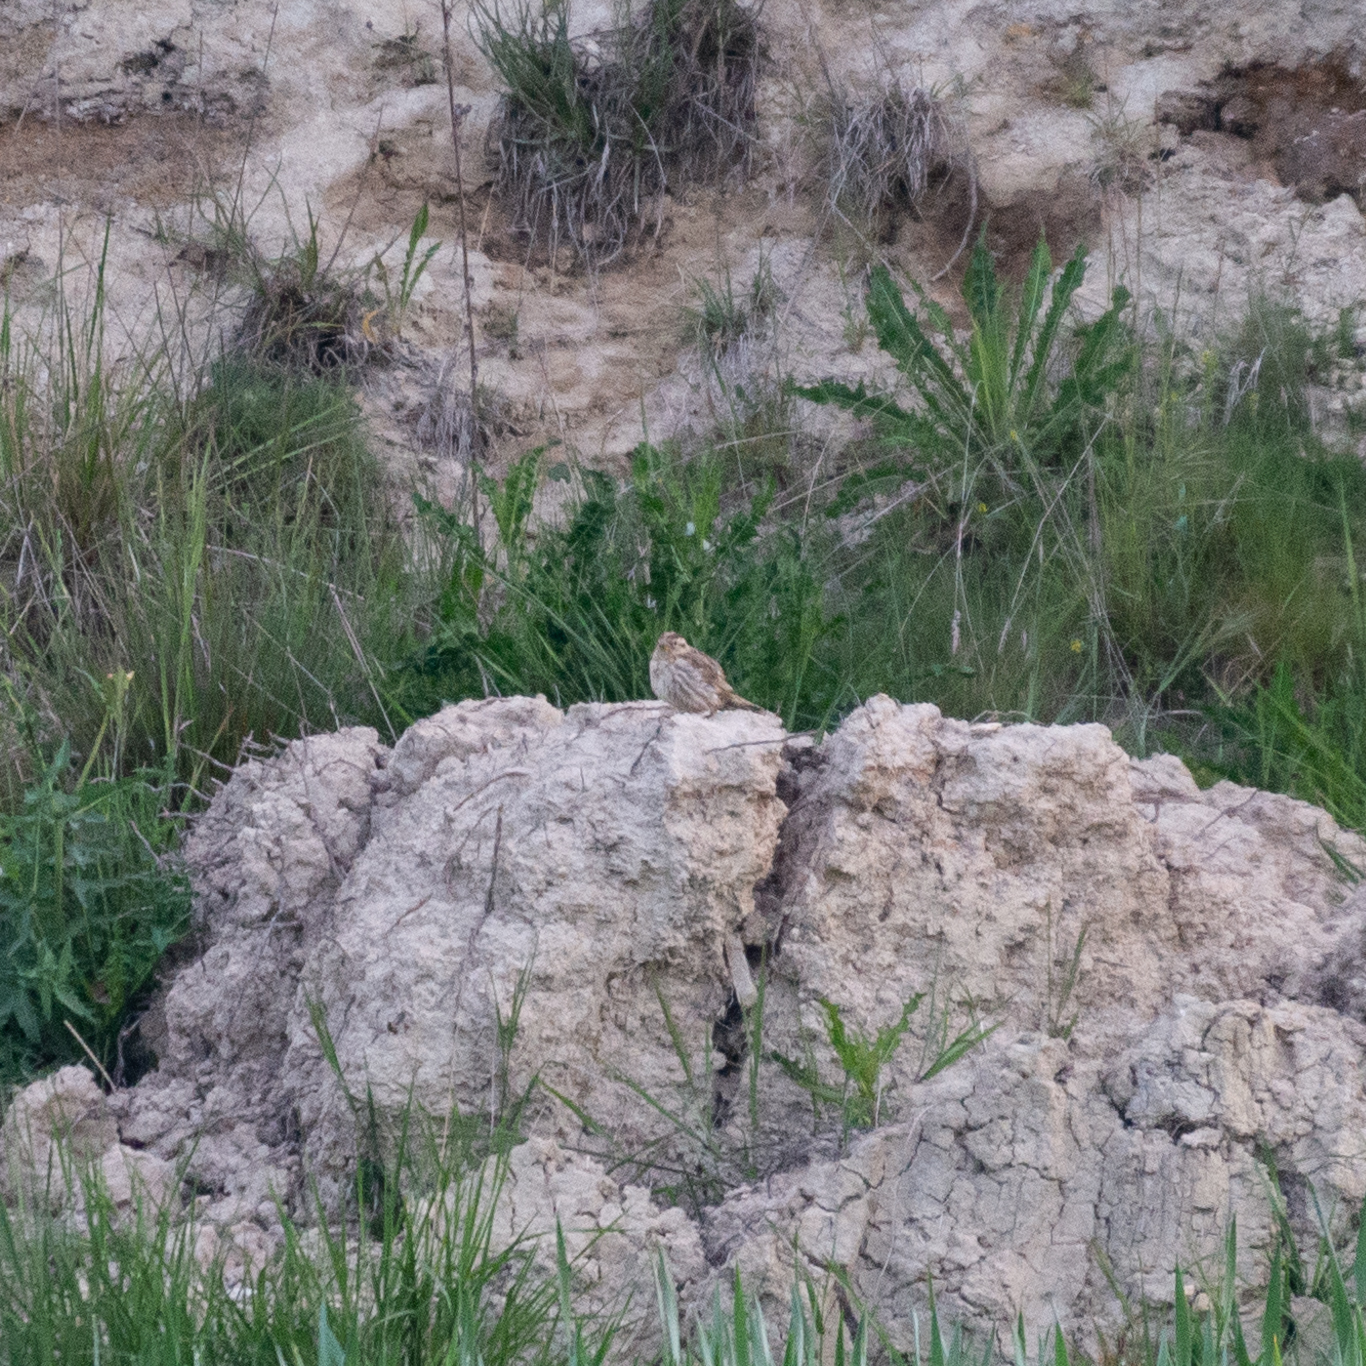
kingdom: Animalia
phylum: Chordata
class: Aves
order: Passeriformes
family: Passeridae
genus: Petronia
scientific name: Petronia petronia
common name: Rock sparrow
